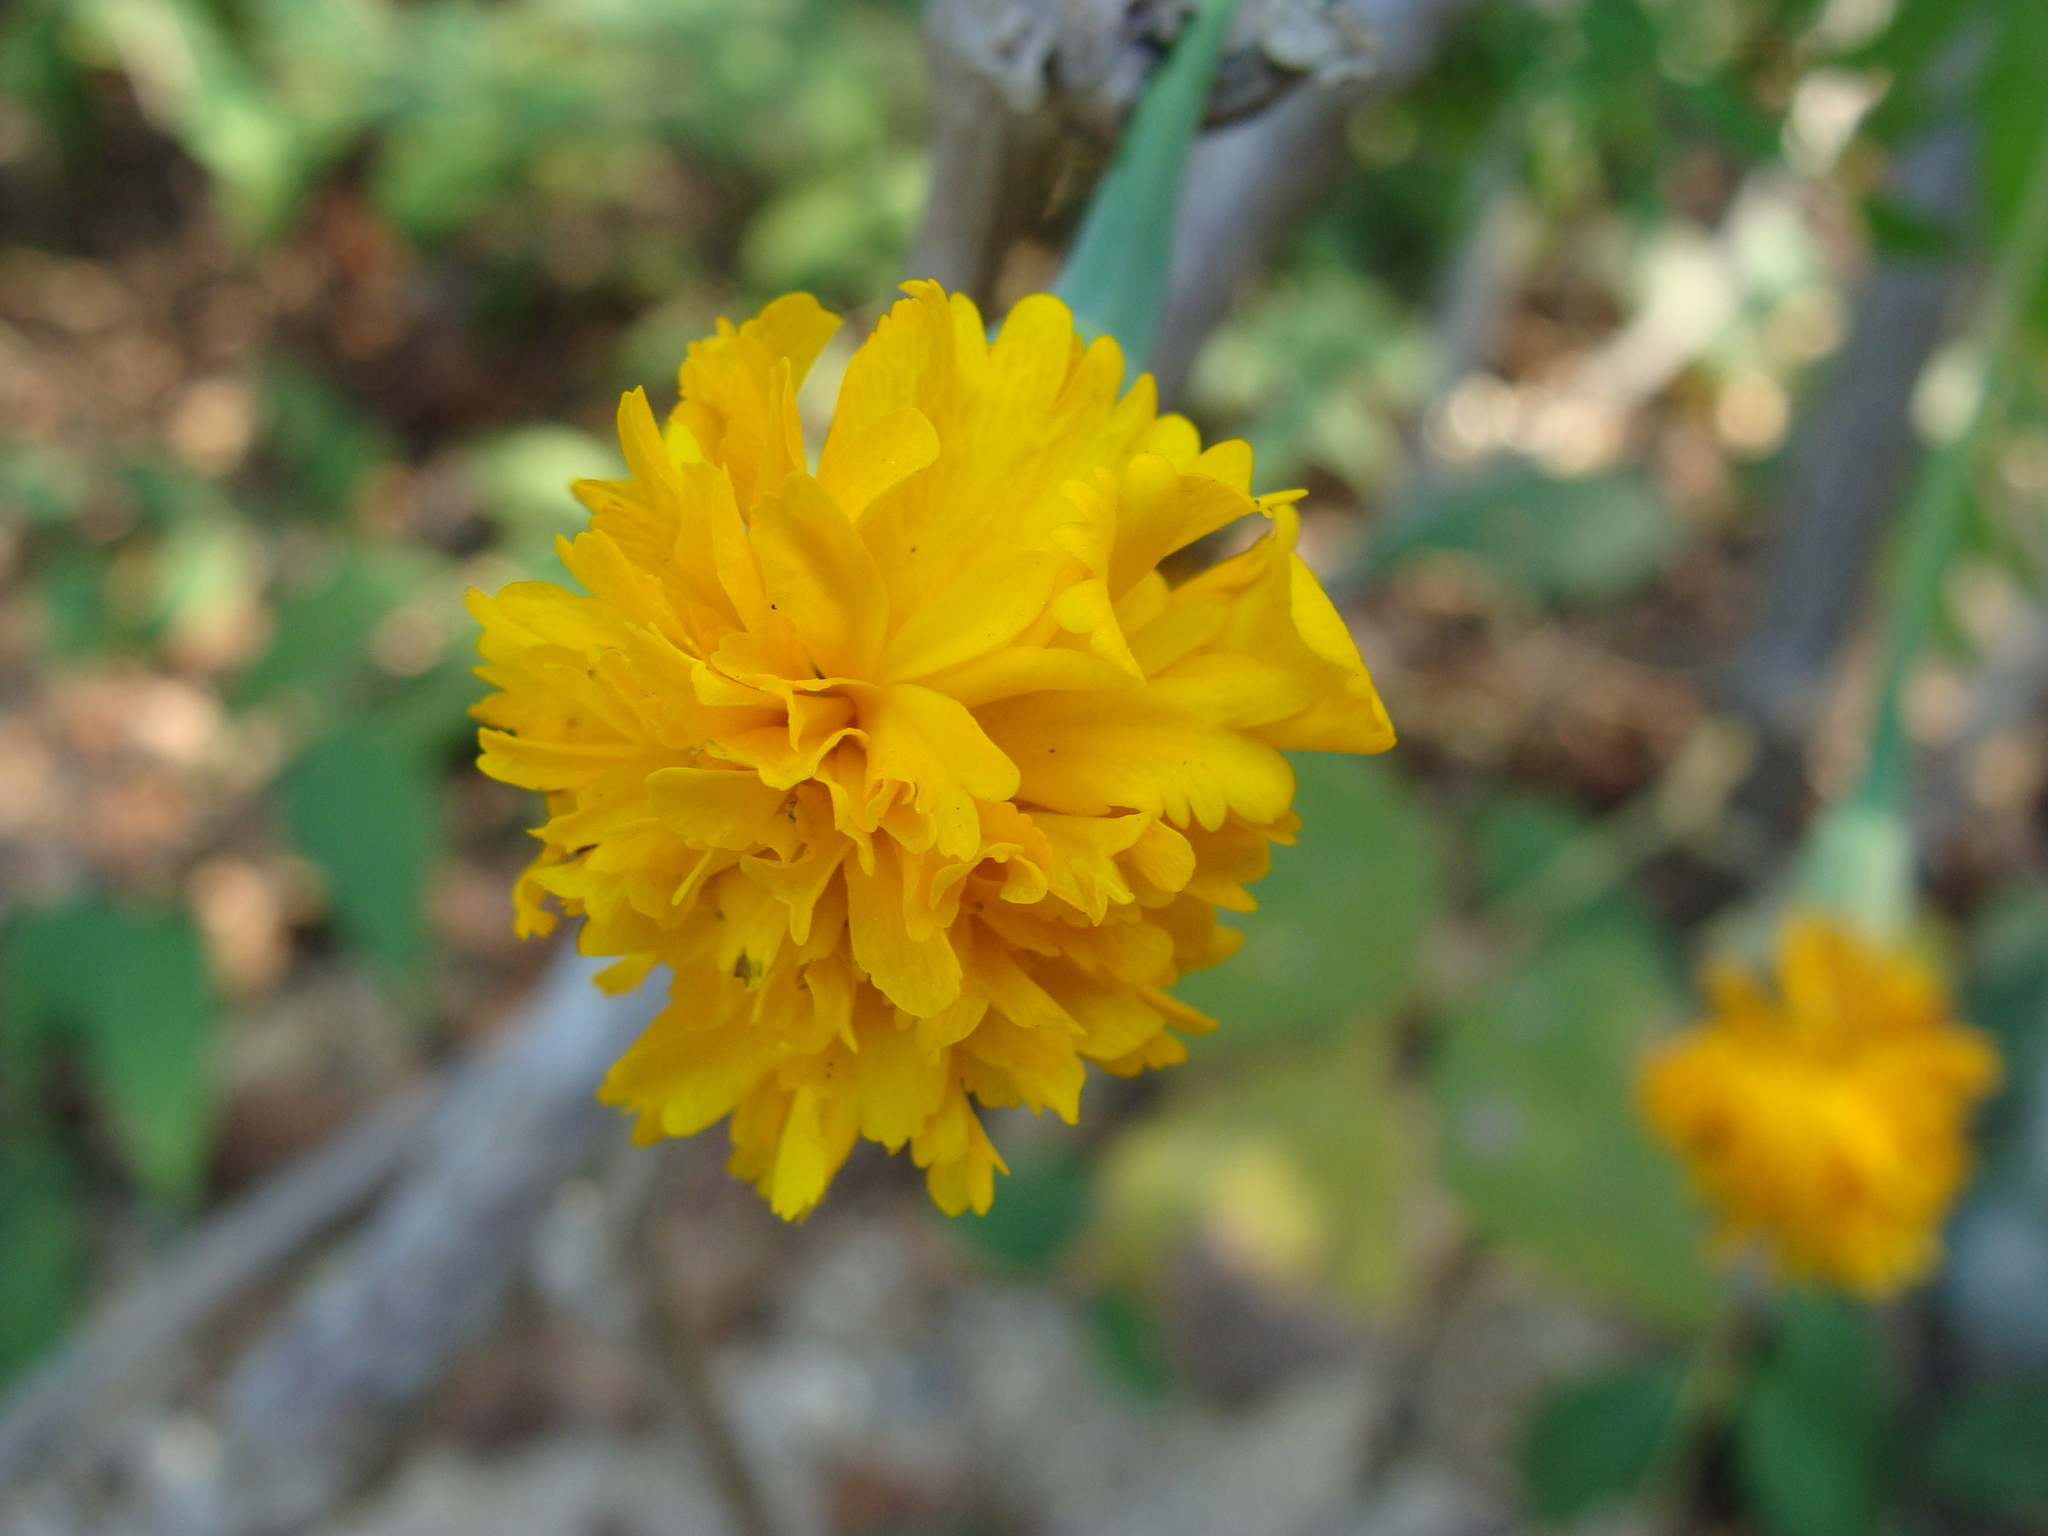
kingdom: Plantae
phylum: Tracheophyta
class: Magnoliopsida
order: Asterales
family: Asteraceae
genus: Tagetes
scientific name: Tagetes erecta
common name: African marigold
